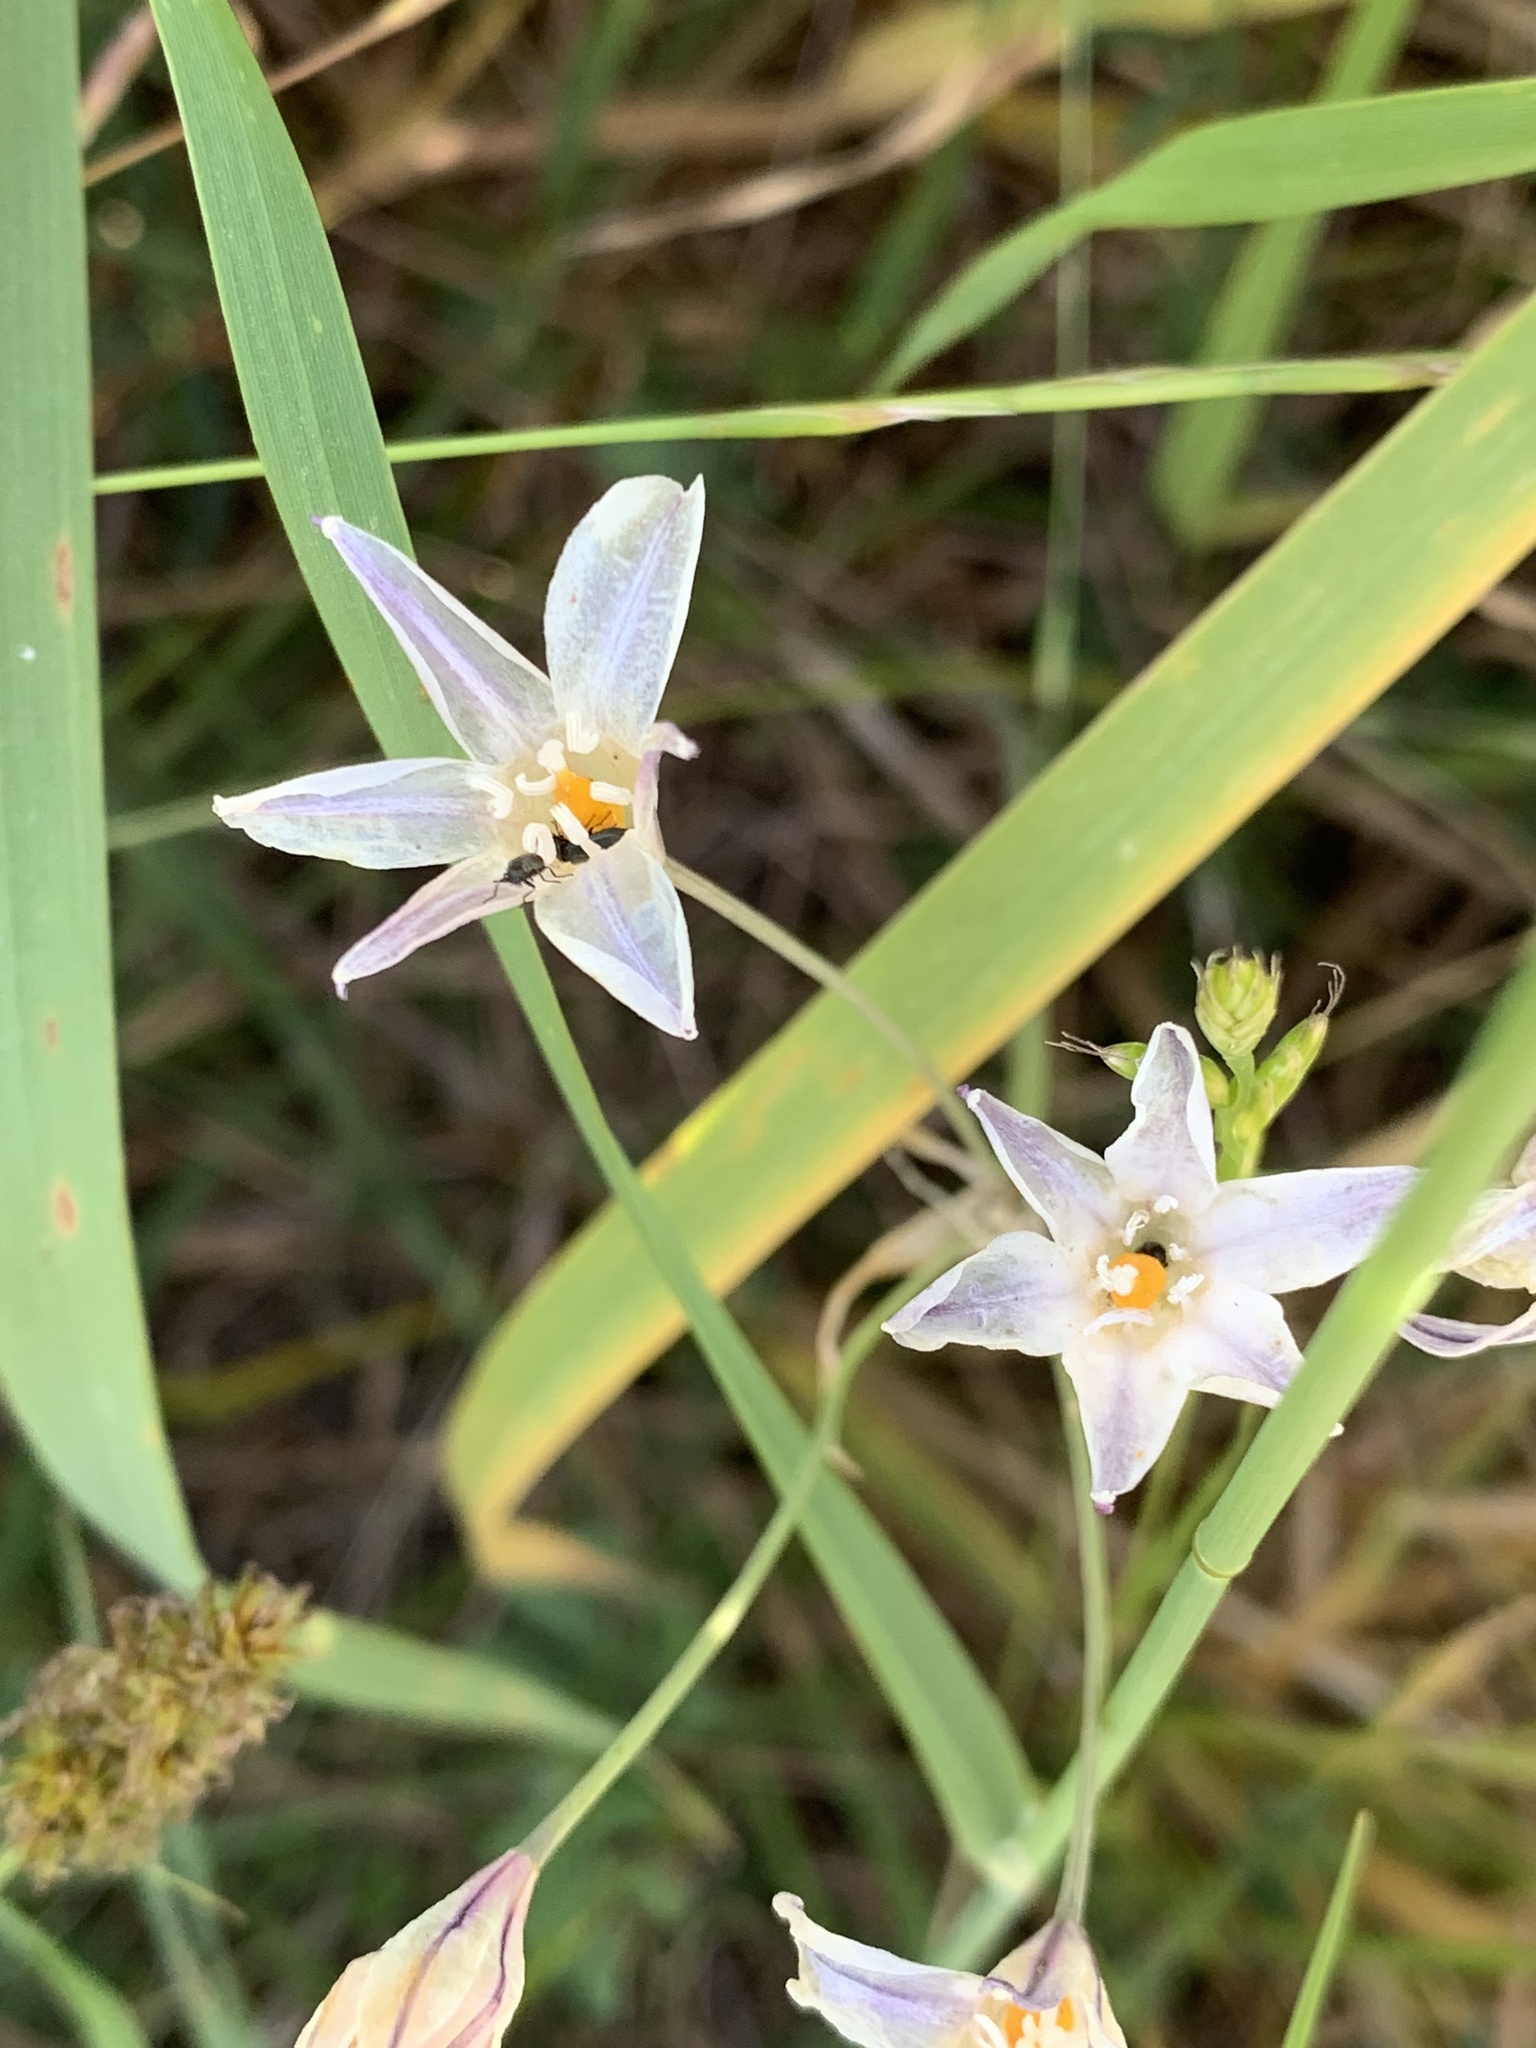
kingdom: Plantae
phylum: Tracheophyta
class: Liliopsida
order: Asparagales
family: Asparagaceae
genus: Triteleia
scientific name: Triteleia peduncularis
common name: Long-ray brodiaea
